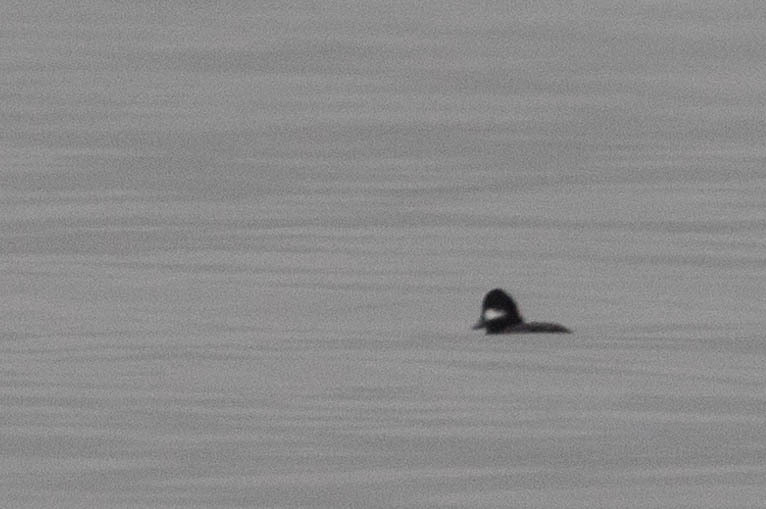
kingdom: Animalia
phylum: Chordata
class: Aves
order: Anseriformes
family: Anatidae
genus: Bucephala
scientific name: Bucephala albeola
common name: Bufflehead
